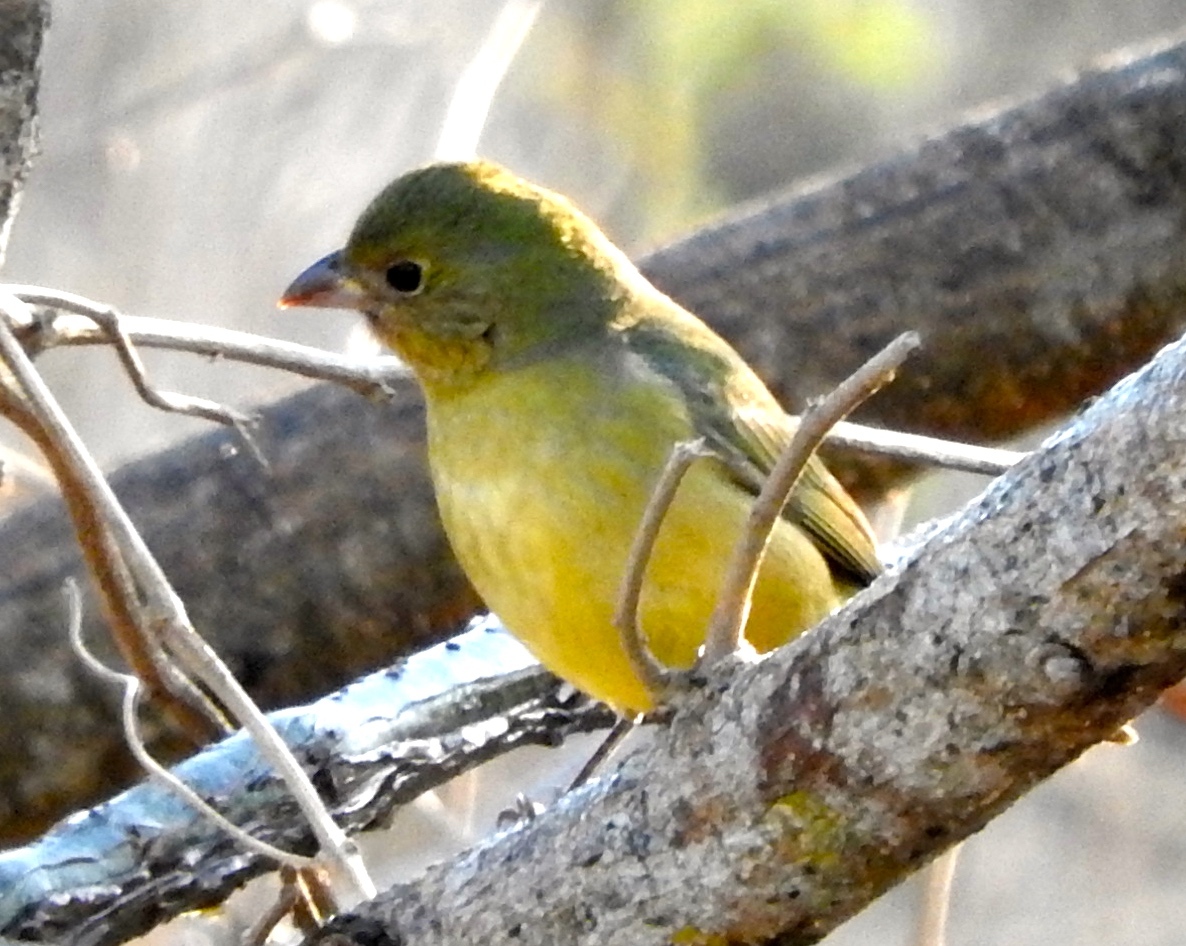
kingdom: Animalia
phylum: Chordata
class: Aves
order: Passeriformes
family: Cardinalidae
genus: Passerina
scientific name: Passerina ciris
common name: Painted bunting
